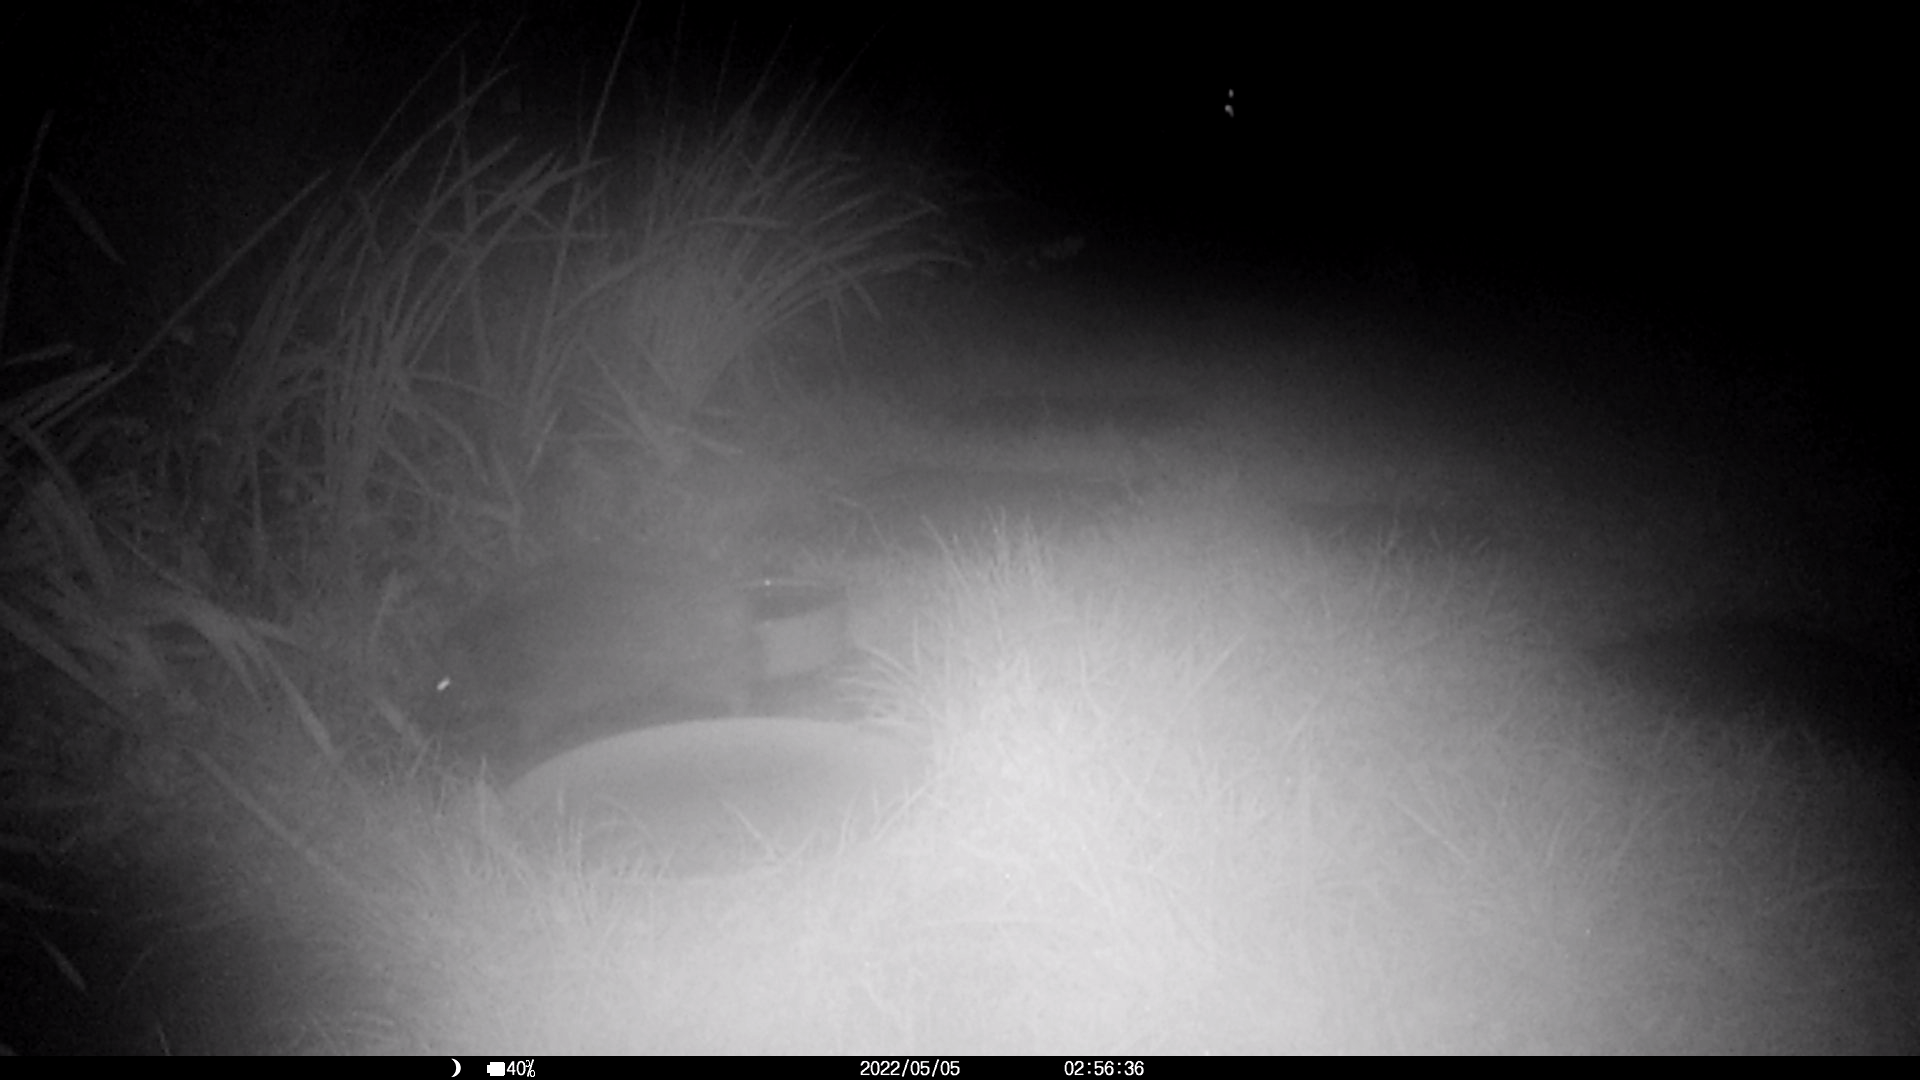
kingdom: Animalia
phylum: Chordata
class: Mammalia
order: Erinaceomorpha
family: Erinaceidae
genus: Erinaceus
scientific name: Erinaceus europaeus
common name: West european hedgehog
